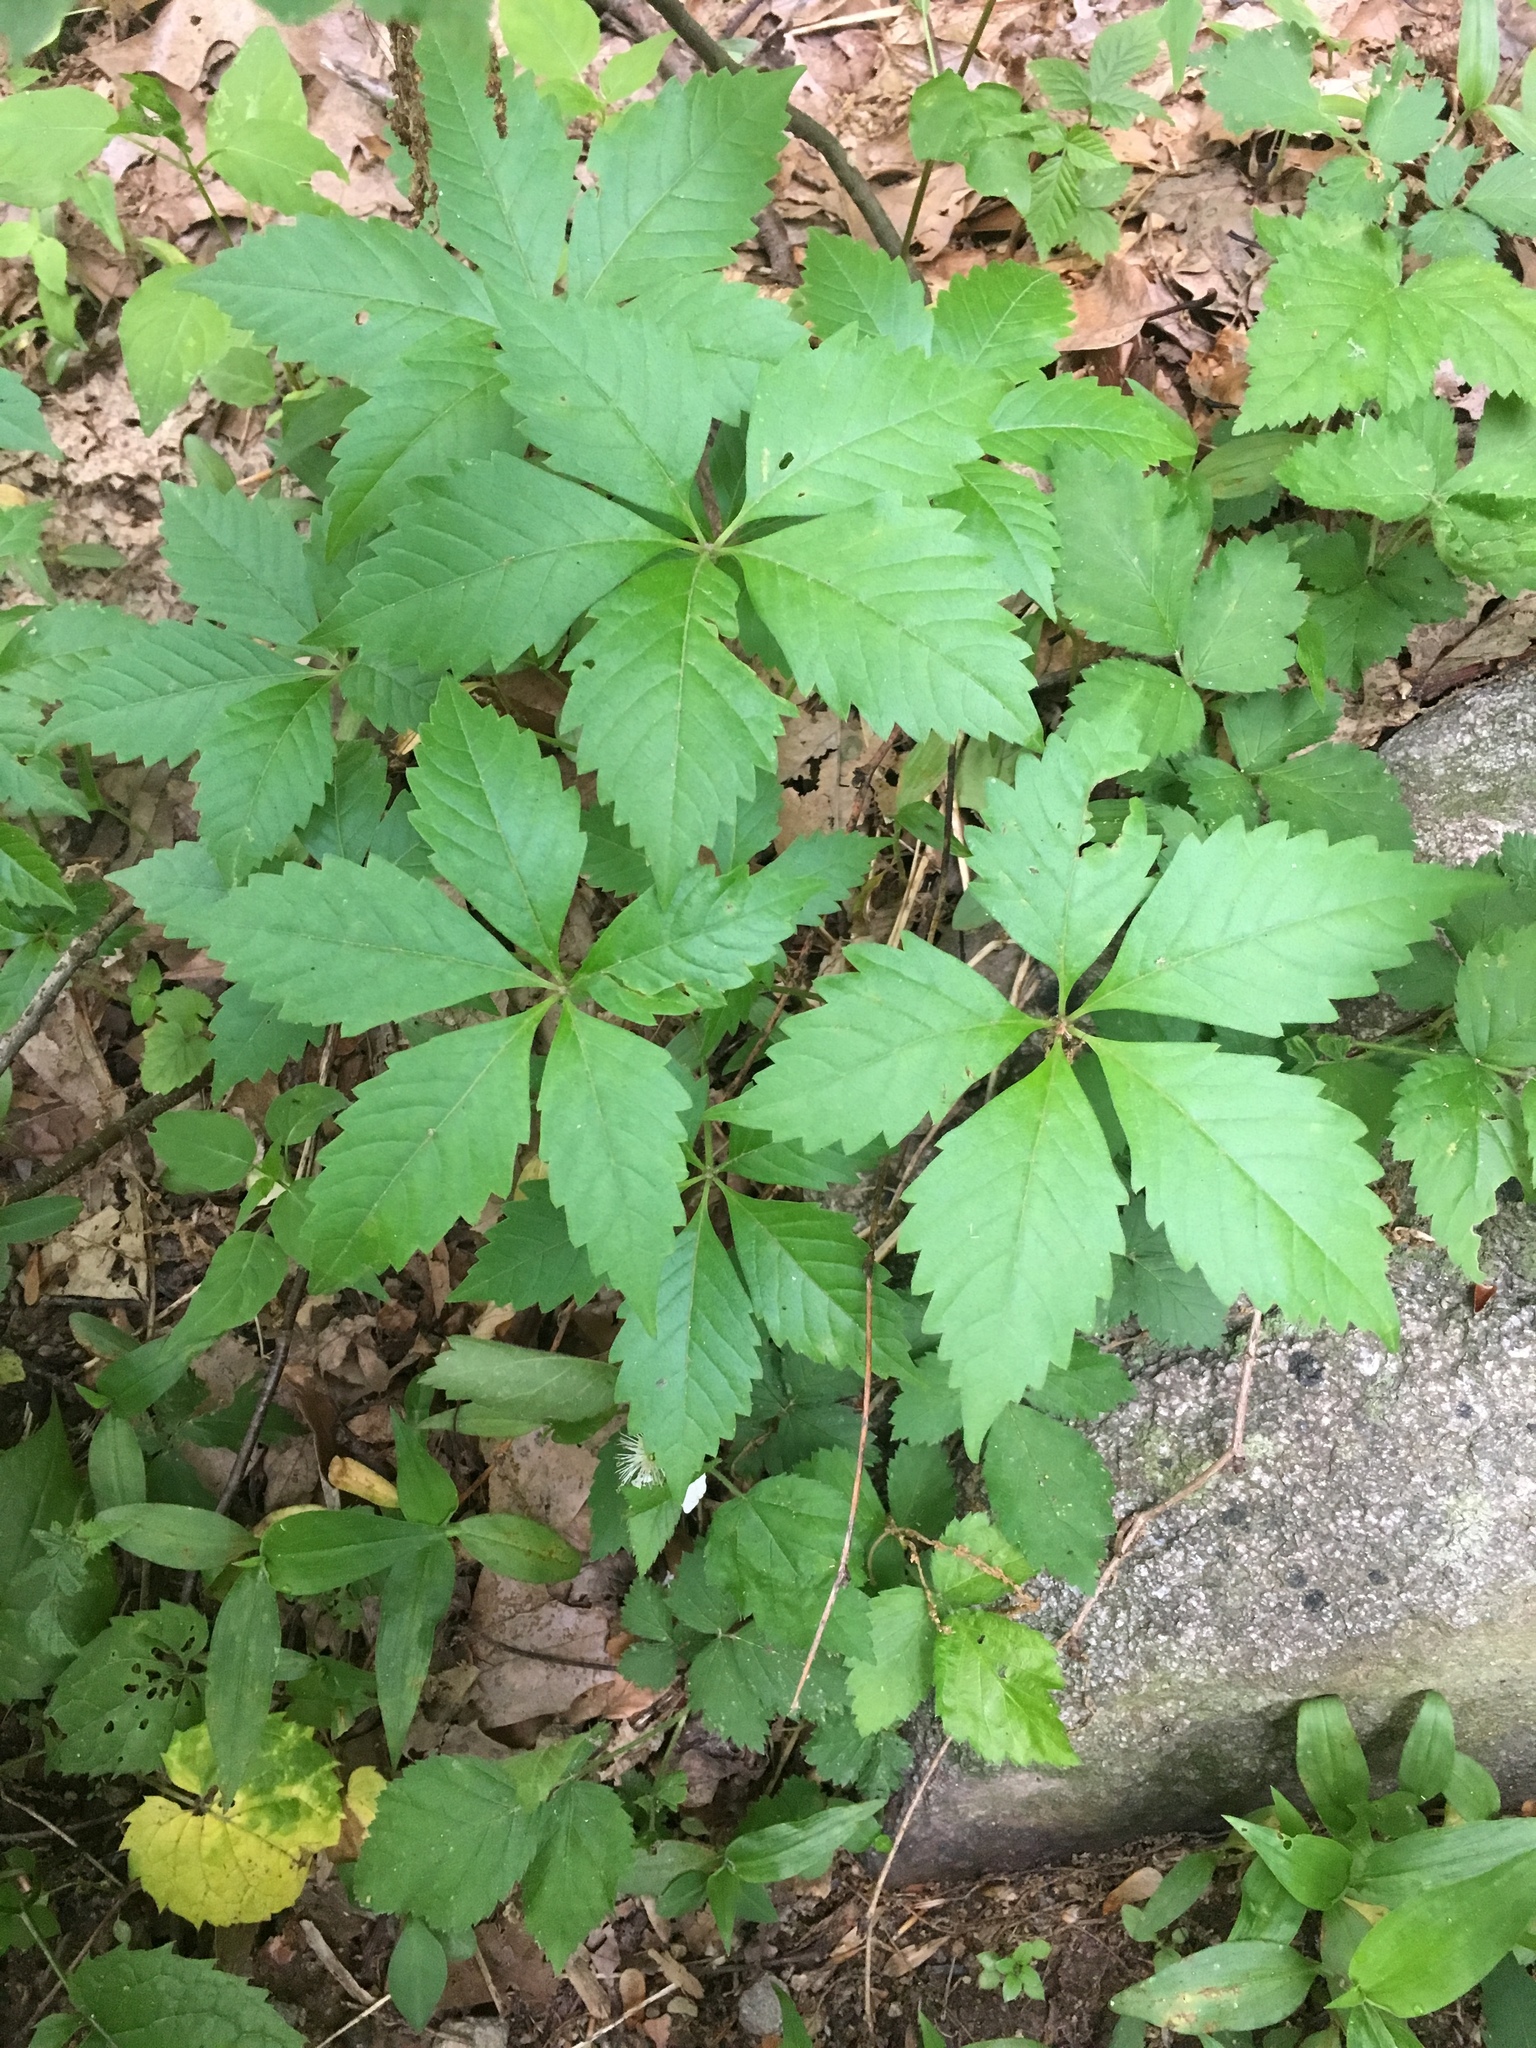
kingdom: Plantae
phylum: Tracheophyta
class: Magnoliopsida
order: Vitales
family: Vitaceae
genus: Parthenocissus
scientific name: Parthenocissus quinquefolia
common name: Virginia-creeper
